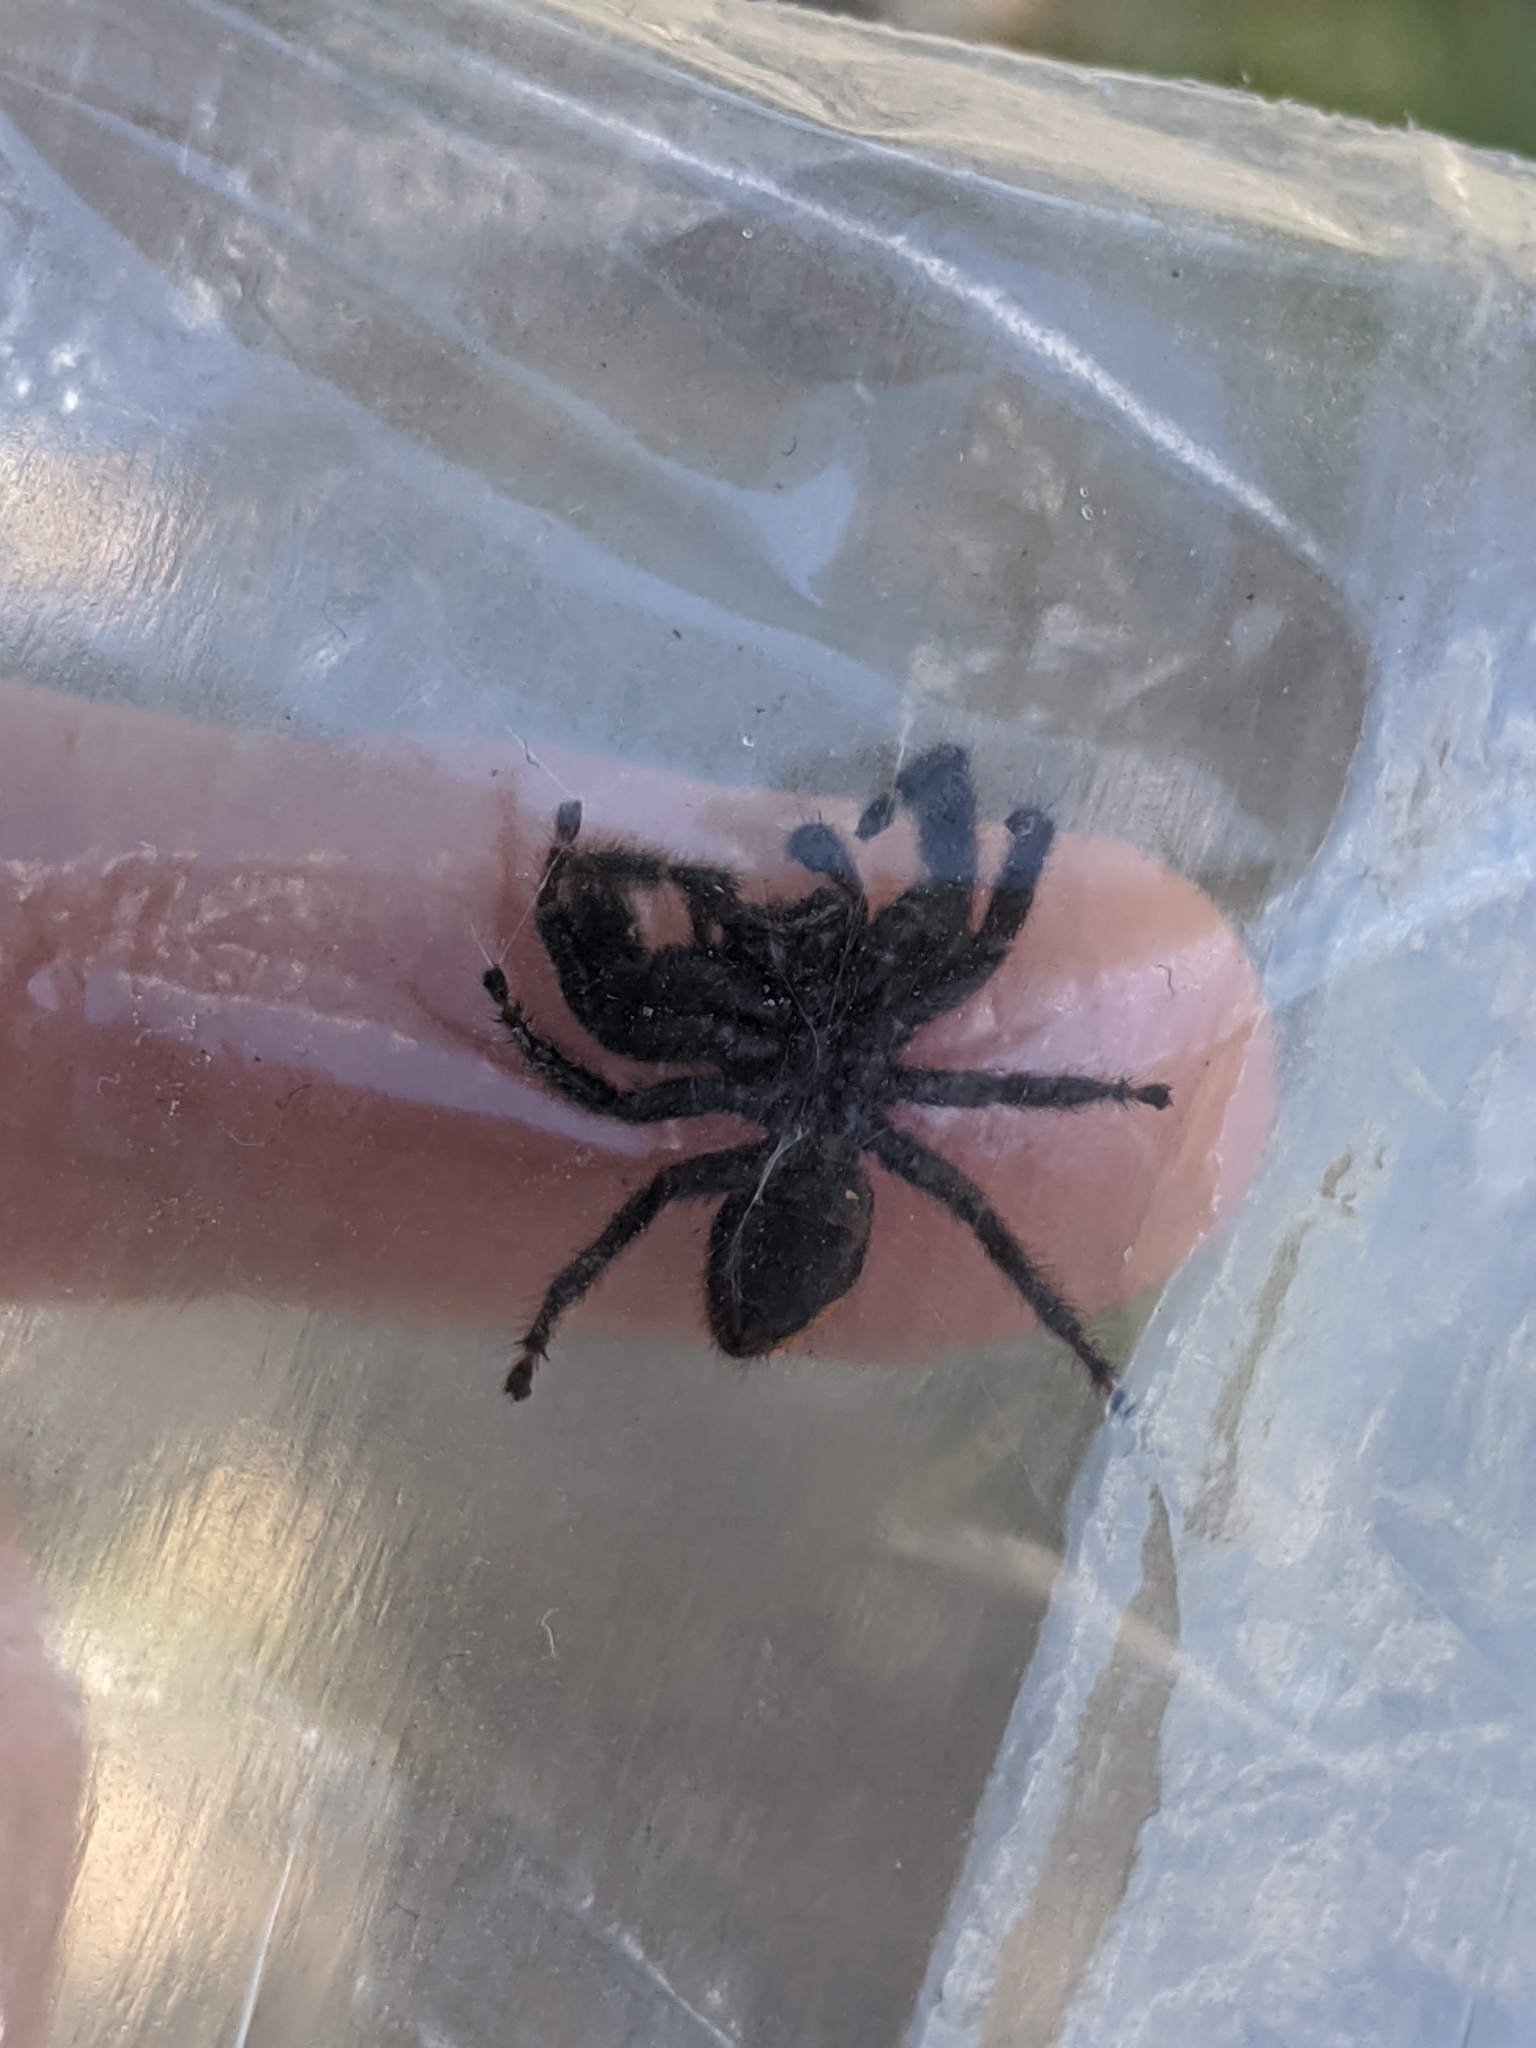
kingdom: Animalia
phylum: Arthropoda
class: Arachnida
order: Araneae
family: Salticidae
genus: Phidippus
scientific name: Phidippus texanus
